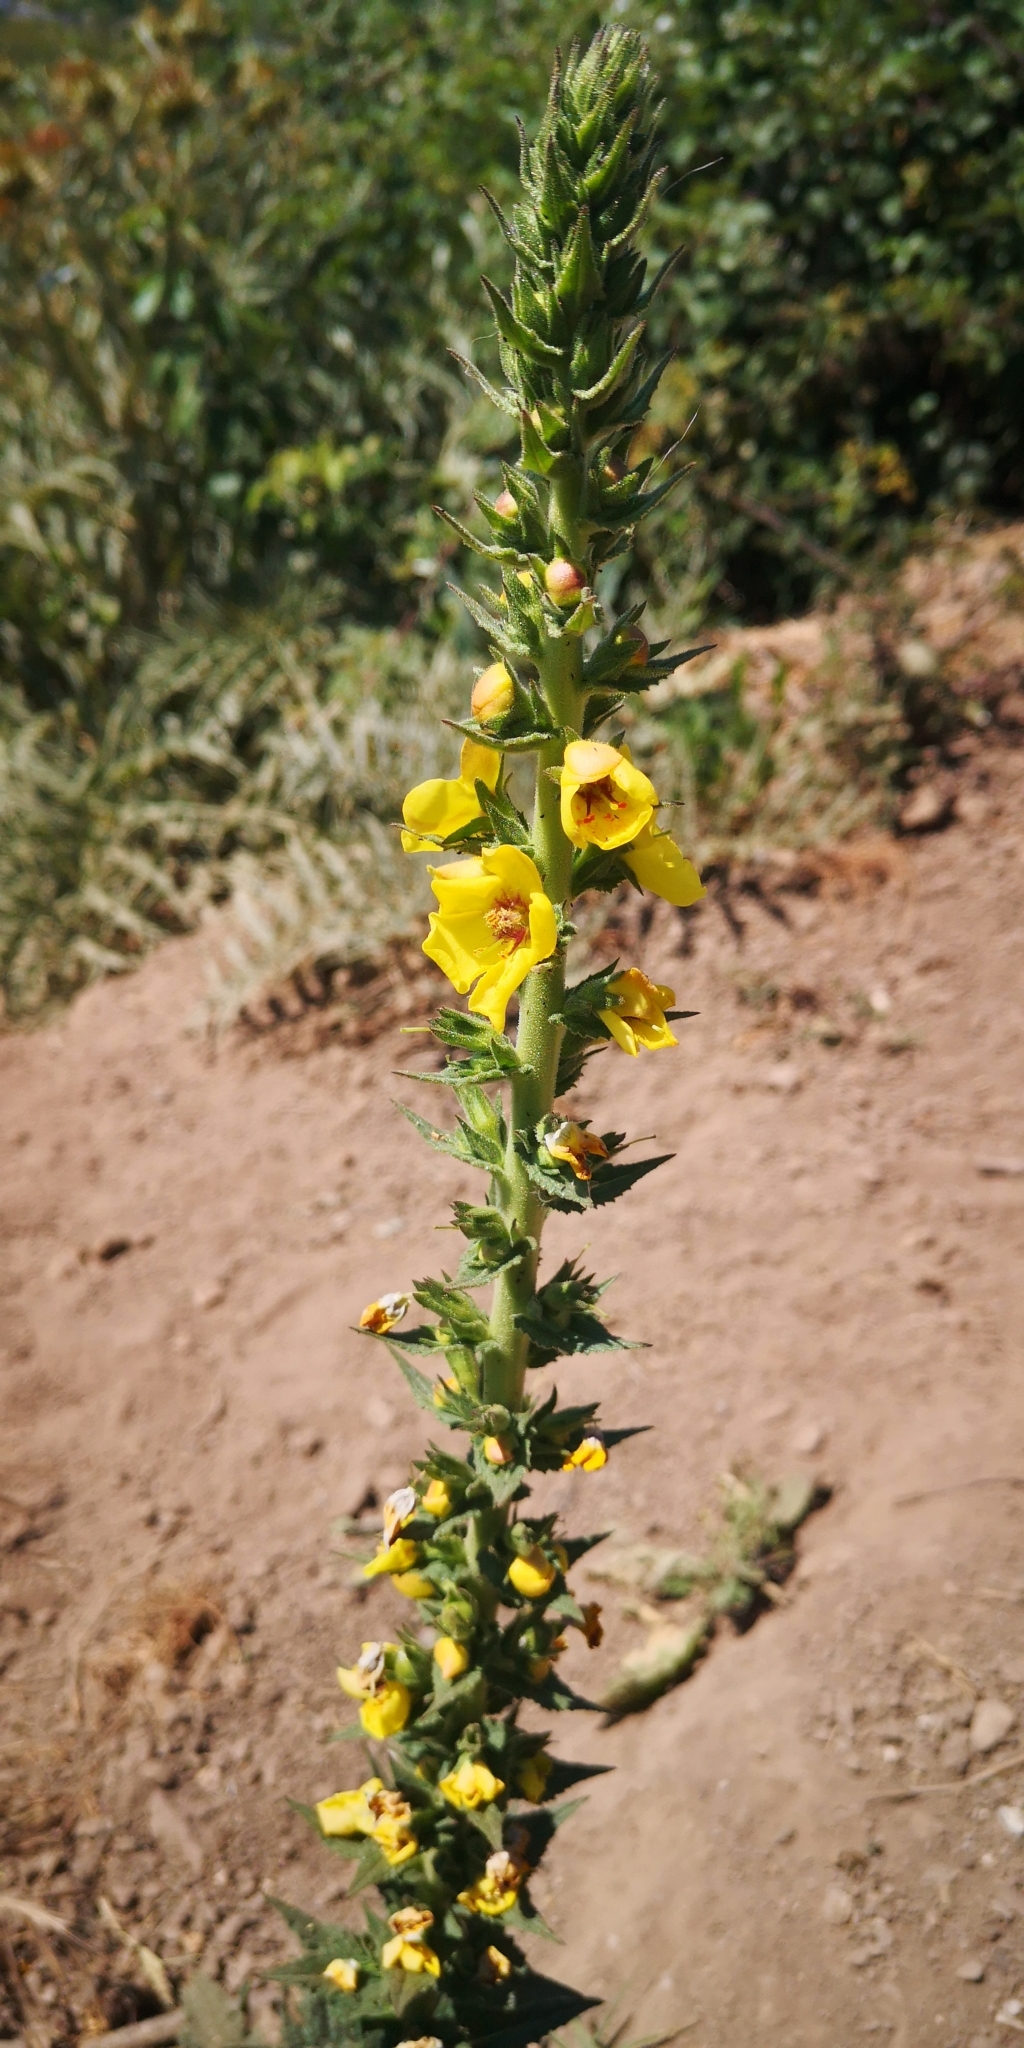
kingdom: Plantae
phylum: Tracheophyta
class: Magnoliopsida
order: Lamiales
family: Scrophulariaceae
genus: Verbascum
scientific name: Verbascum virgatum
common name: Twiggy mullein
